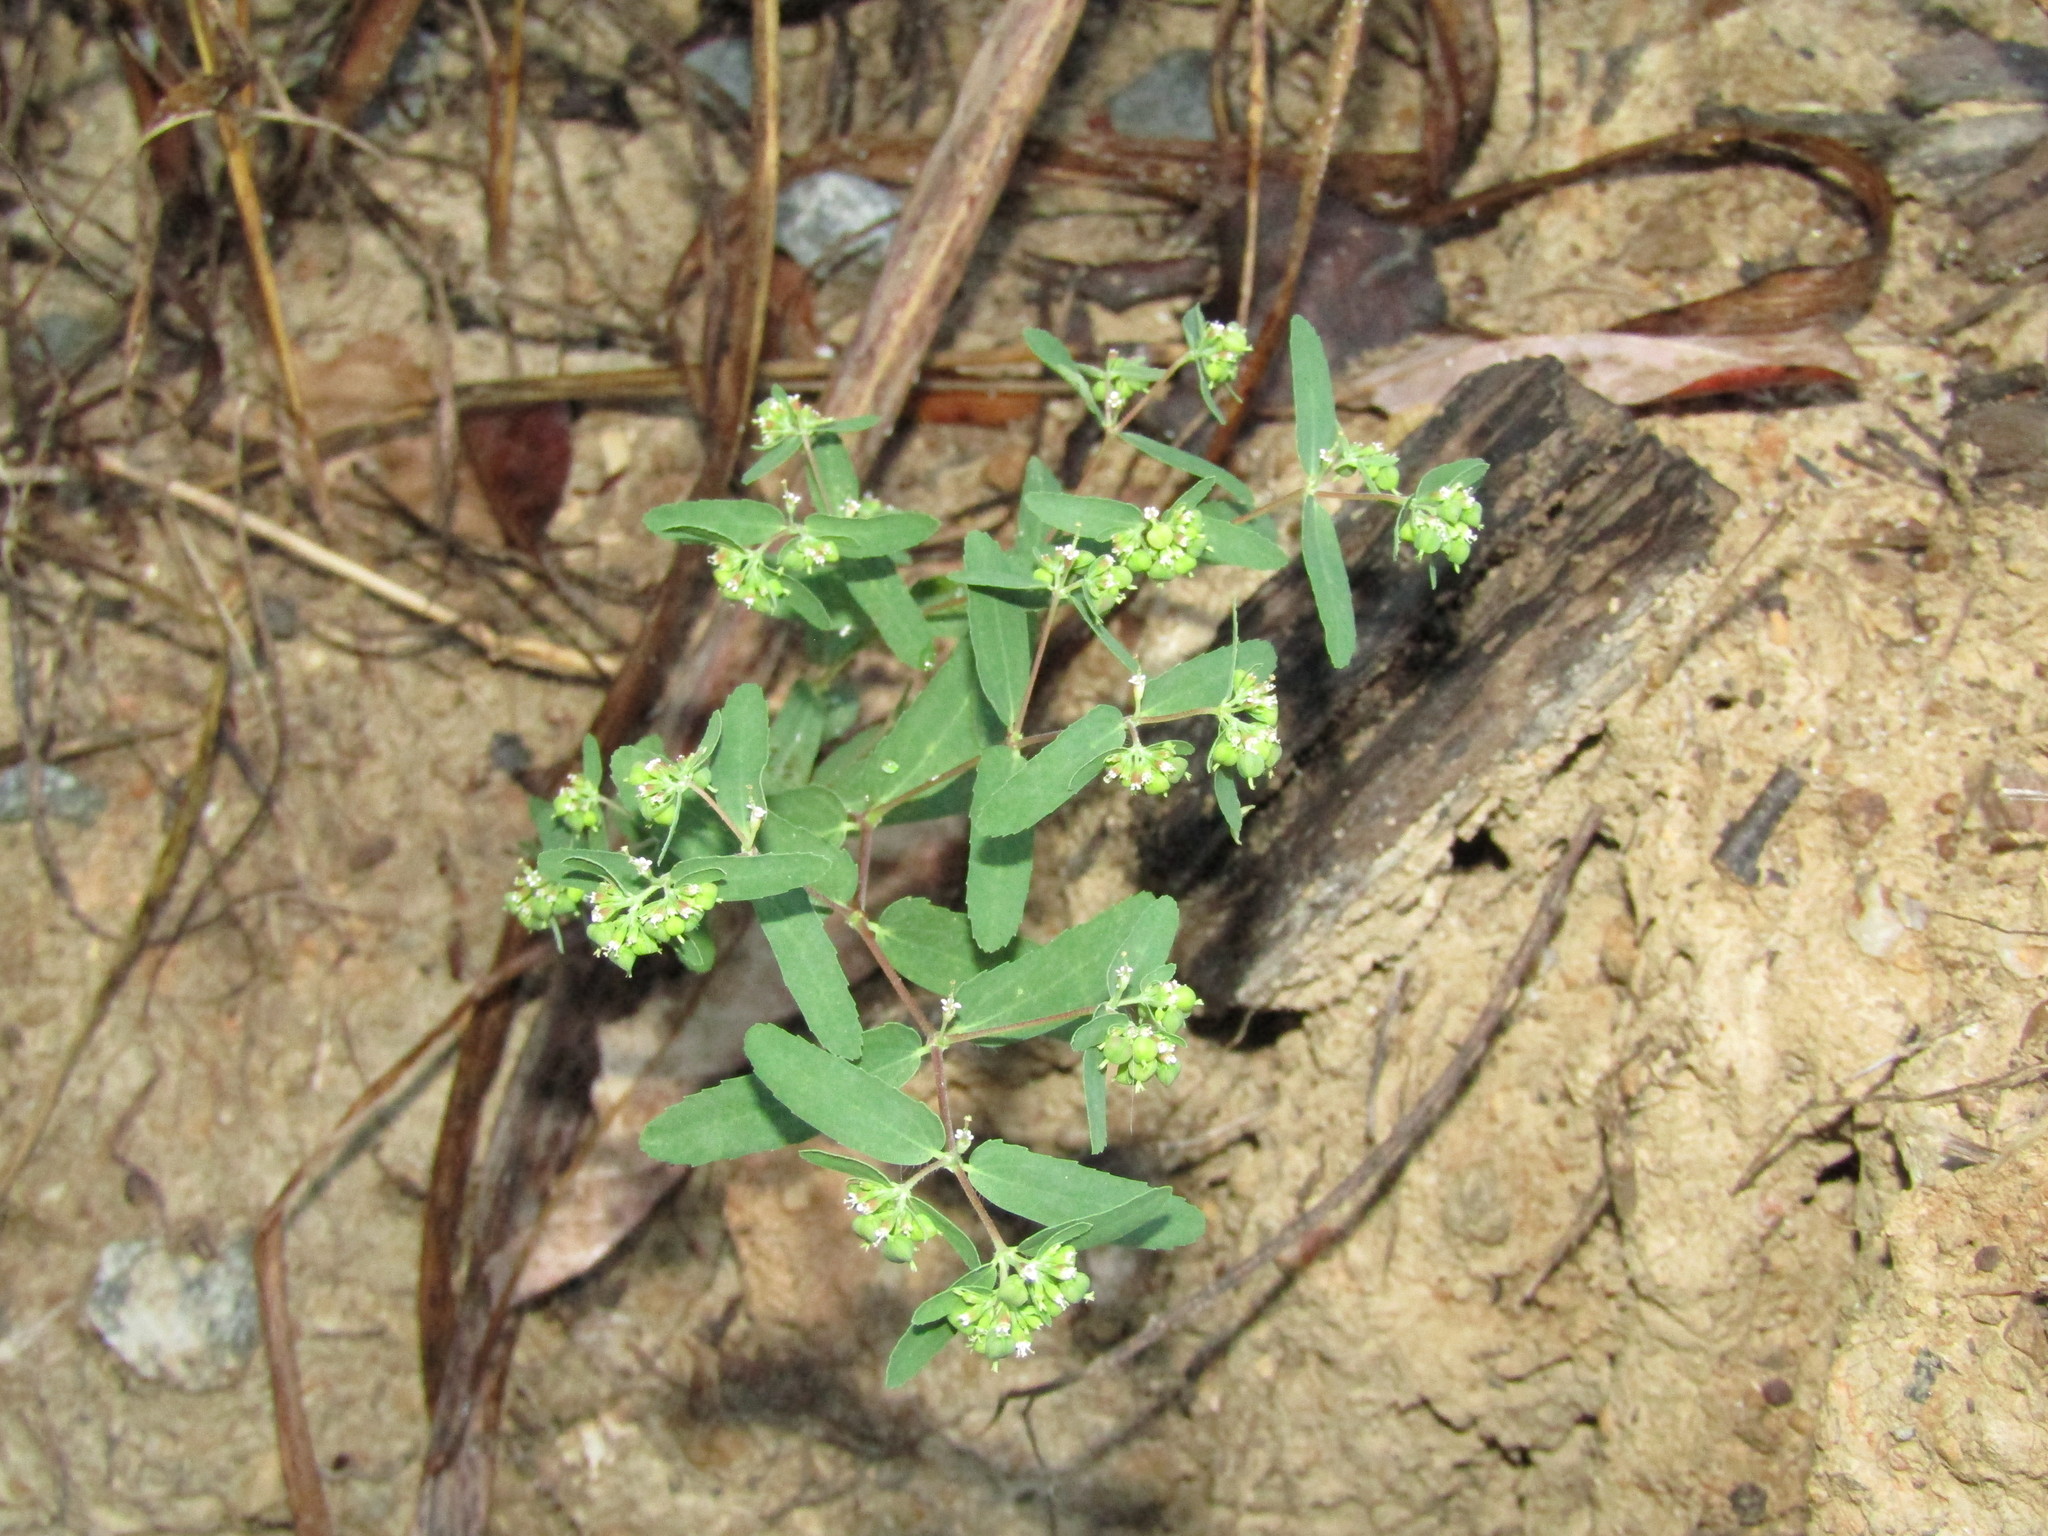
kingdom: Plantae
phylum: Tracheophyta
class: Magnoliopsida
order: Malpighiales
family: Euphorbiaceae
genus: Euphorbia
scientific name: Euphorbia nutans
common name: Eyebane
